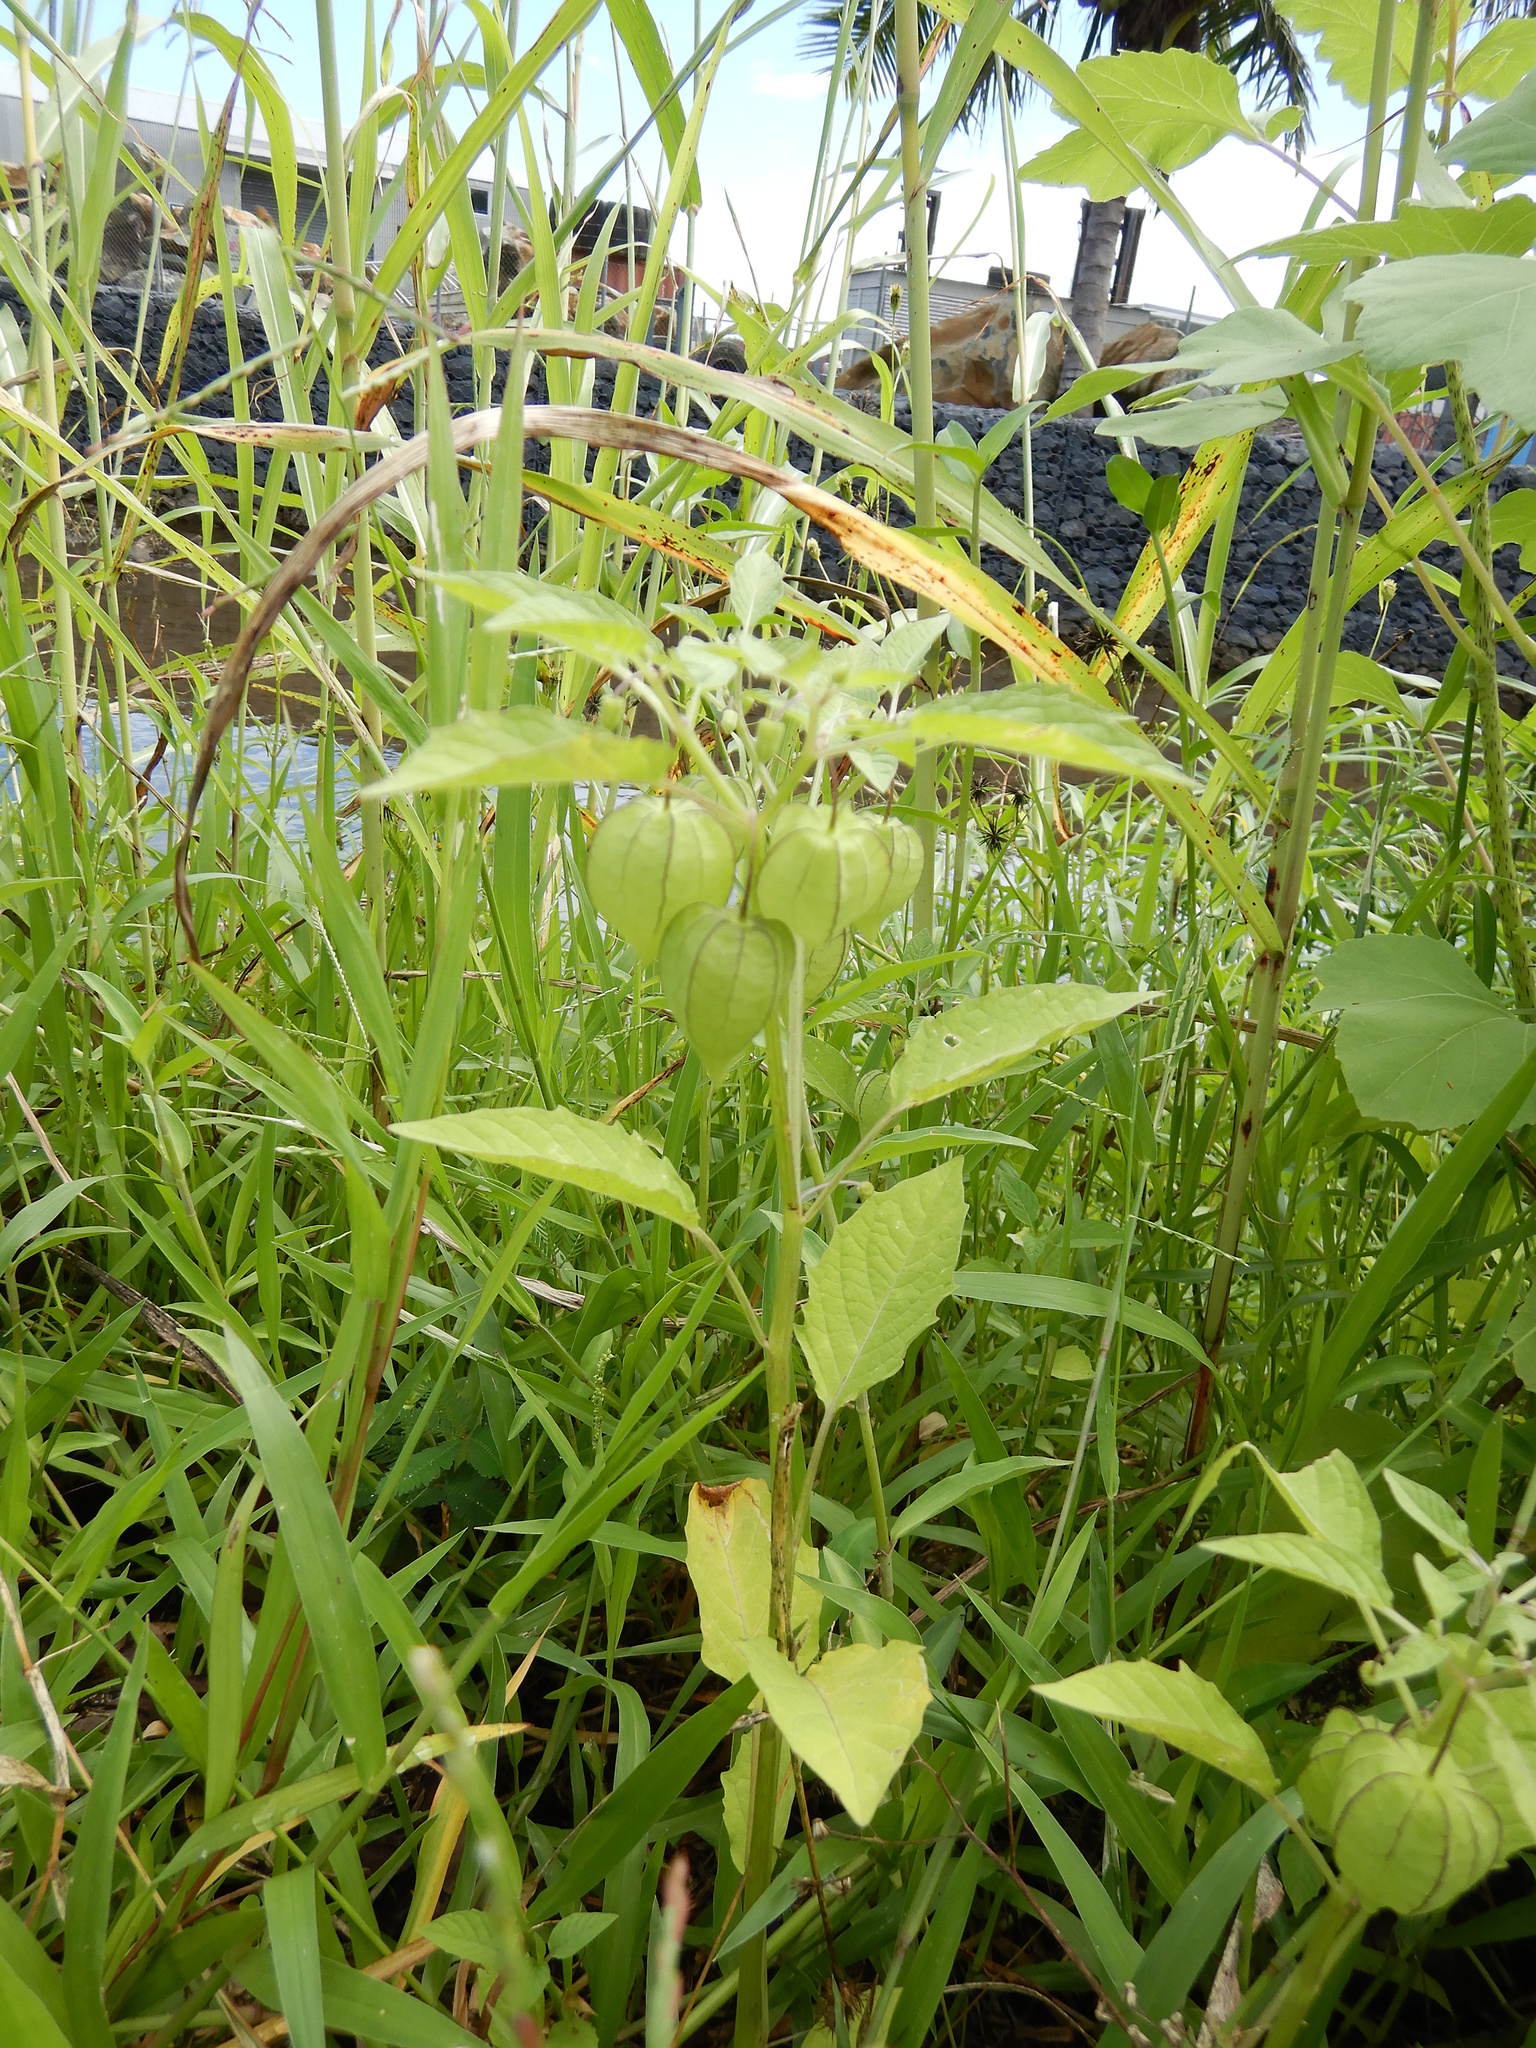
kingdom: Plantae
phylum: Tracheophyta
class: Magnoliopsida
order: Solanales
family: Solanaceae
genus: Physalis
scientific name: Physalis angulata
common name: Angular winter-cherry
